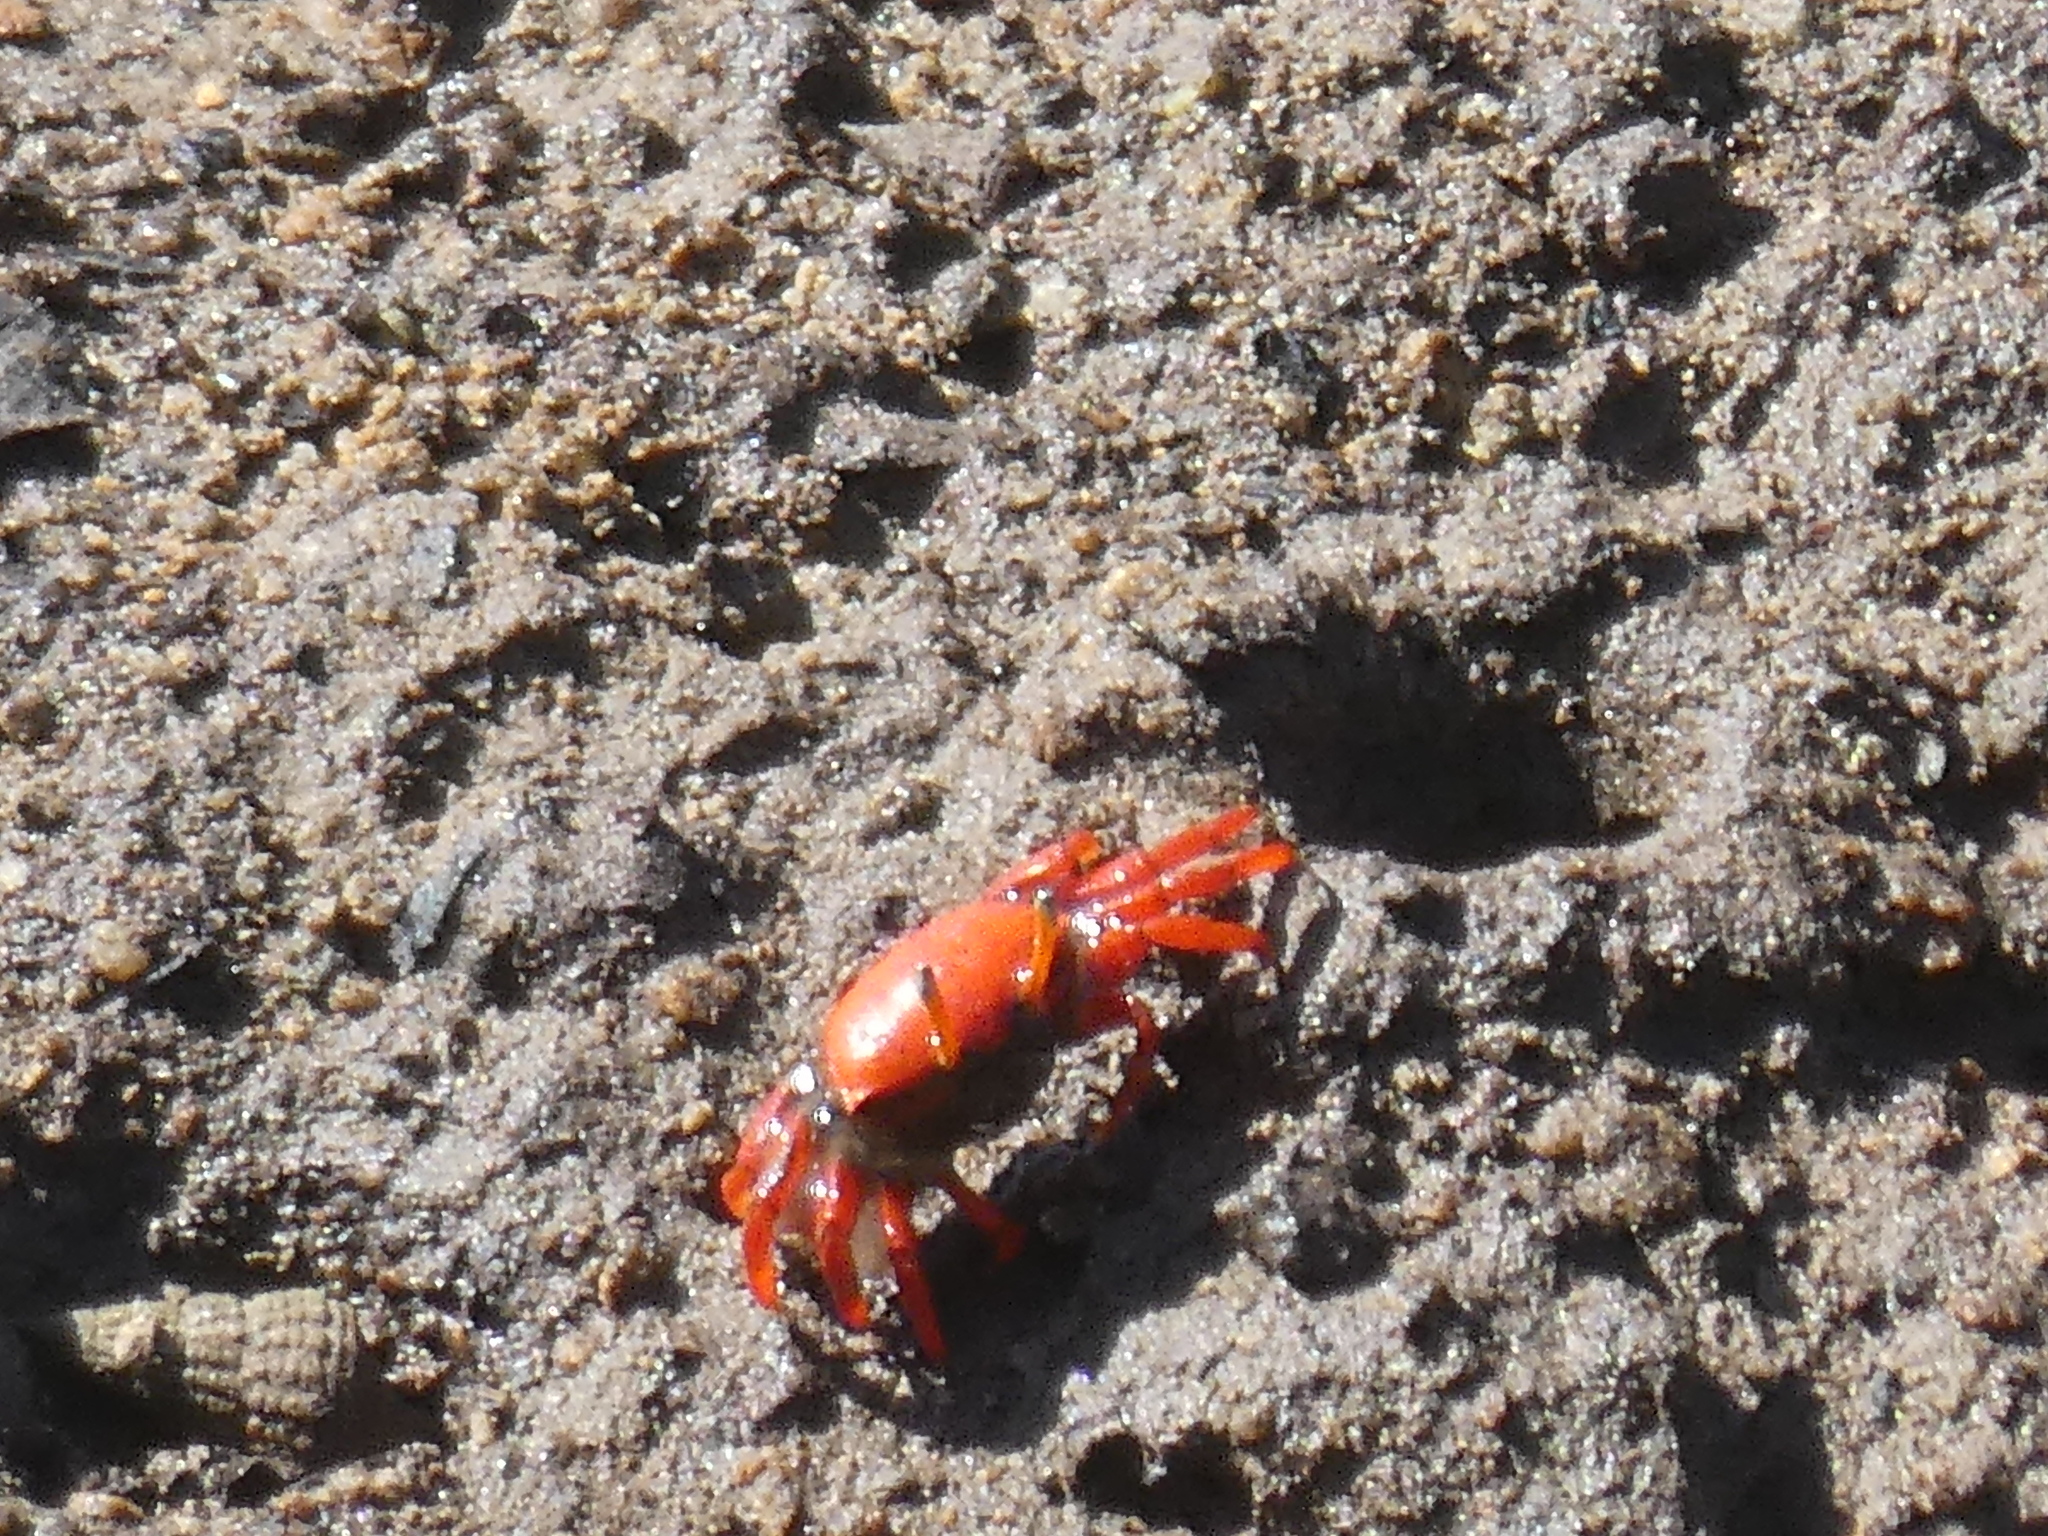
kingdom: Animalia
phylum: Arthropoda
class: Malacostraca
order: Decapoda
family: Ocypodidae
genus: Paraleptuca
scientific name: Paraleptuca crassipes
